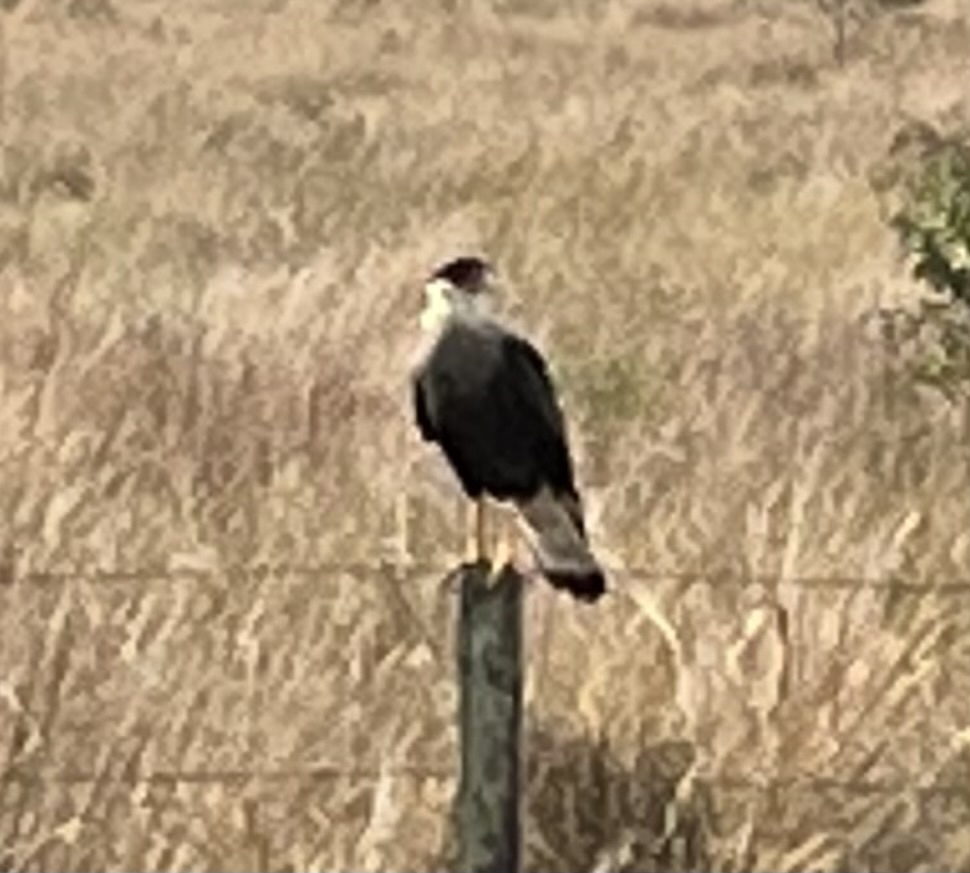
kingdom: Animalia
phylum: Chordata
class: Aves
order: Falconiformes
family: Falconidae
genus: Caracara
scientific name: Caracara plancus
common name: Southern caracara
